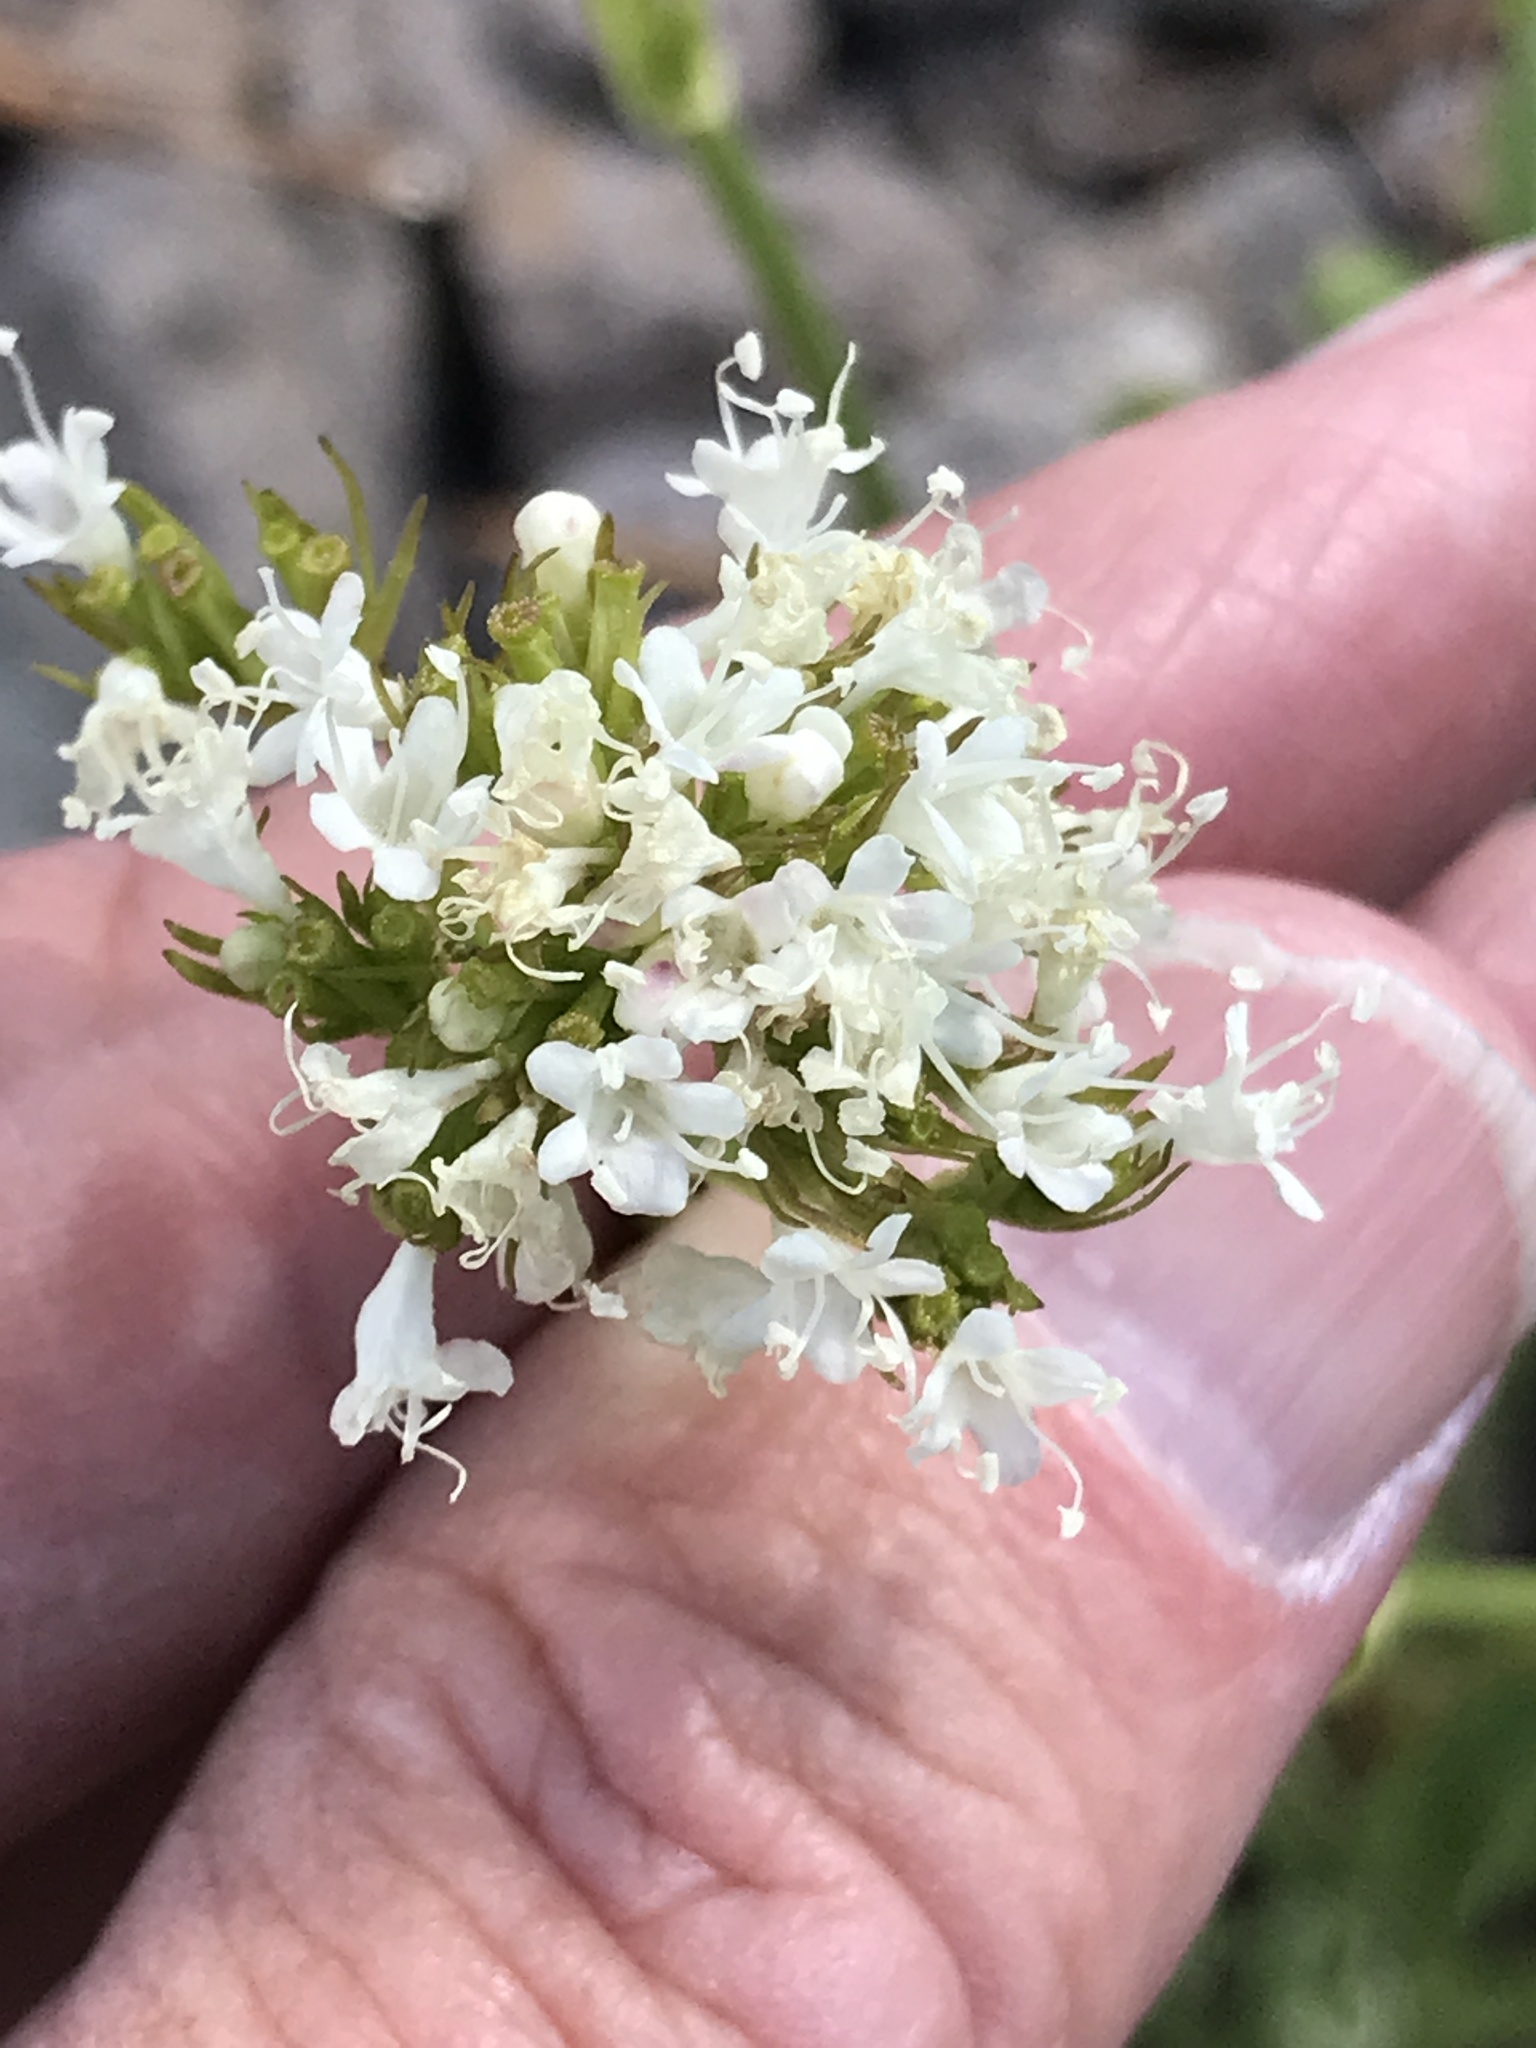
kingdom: Plantae
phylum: Tracheophyta
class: Magnoliopsida
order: Dipsacales
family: Caprifoliaceae
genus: Valeriana
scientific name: Valeriana californica
